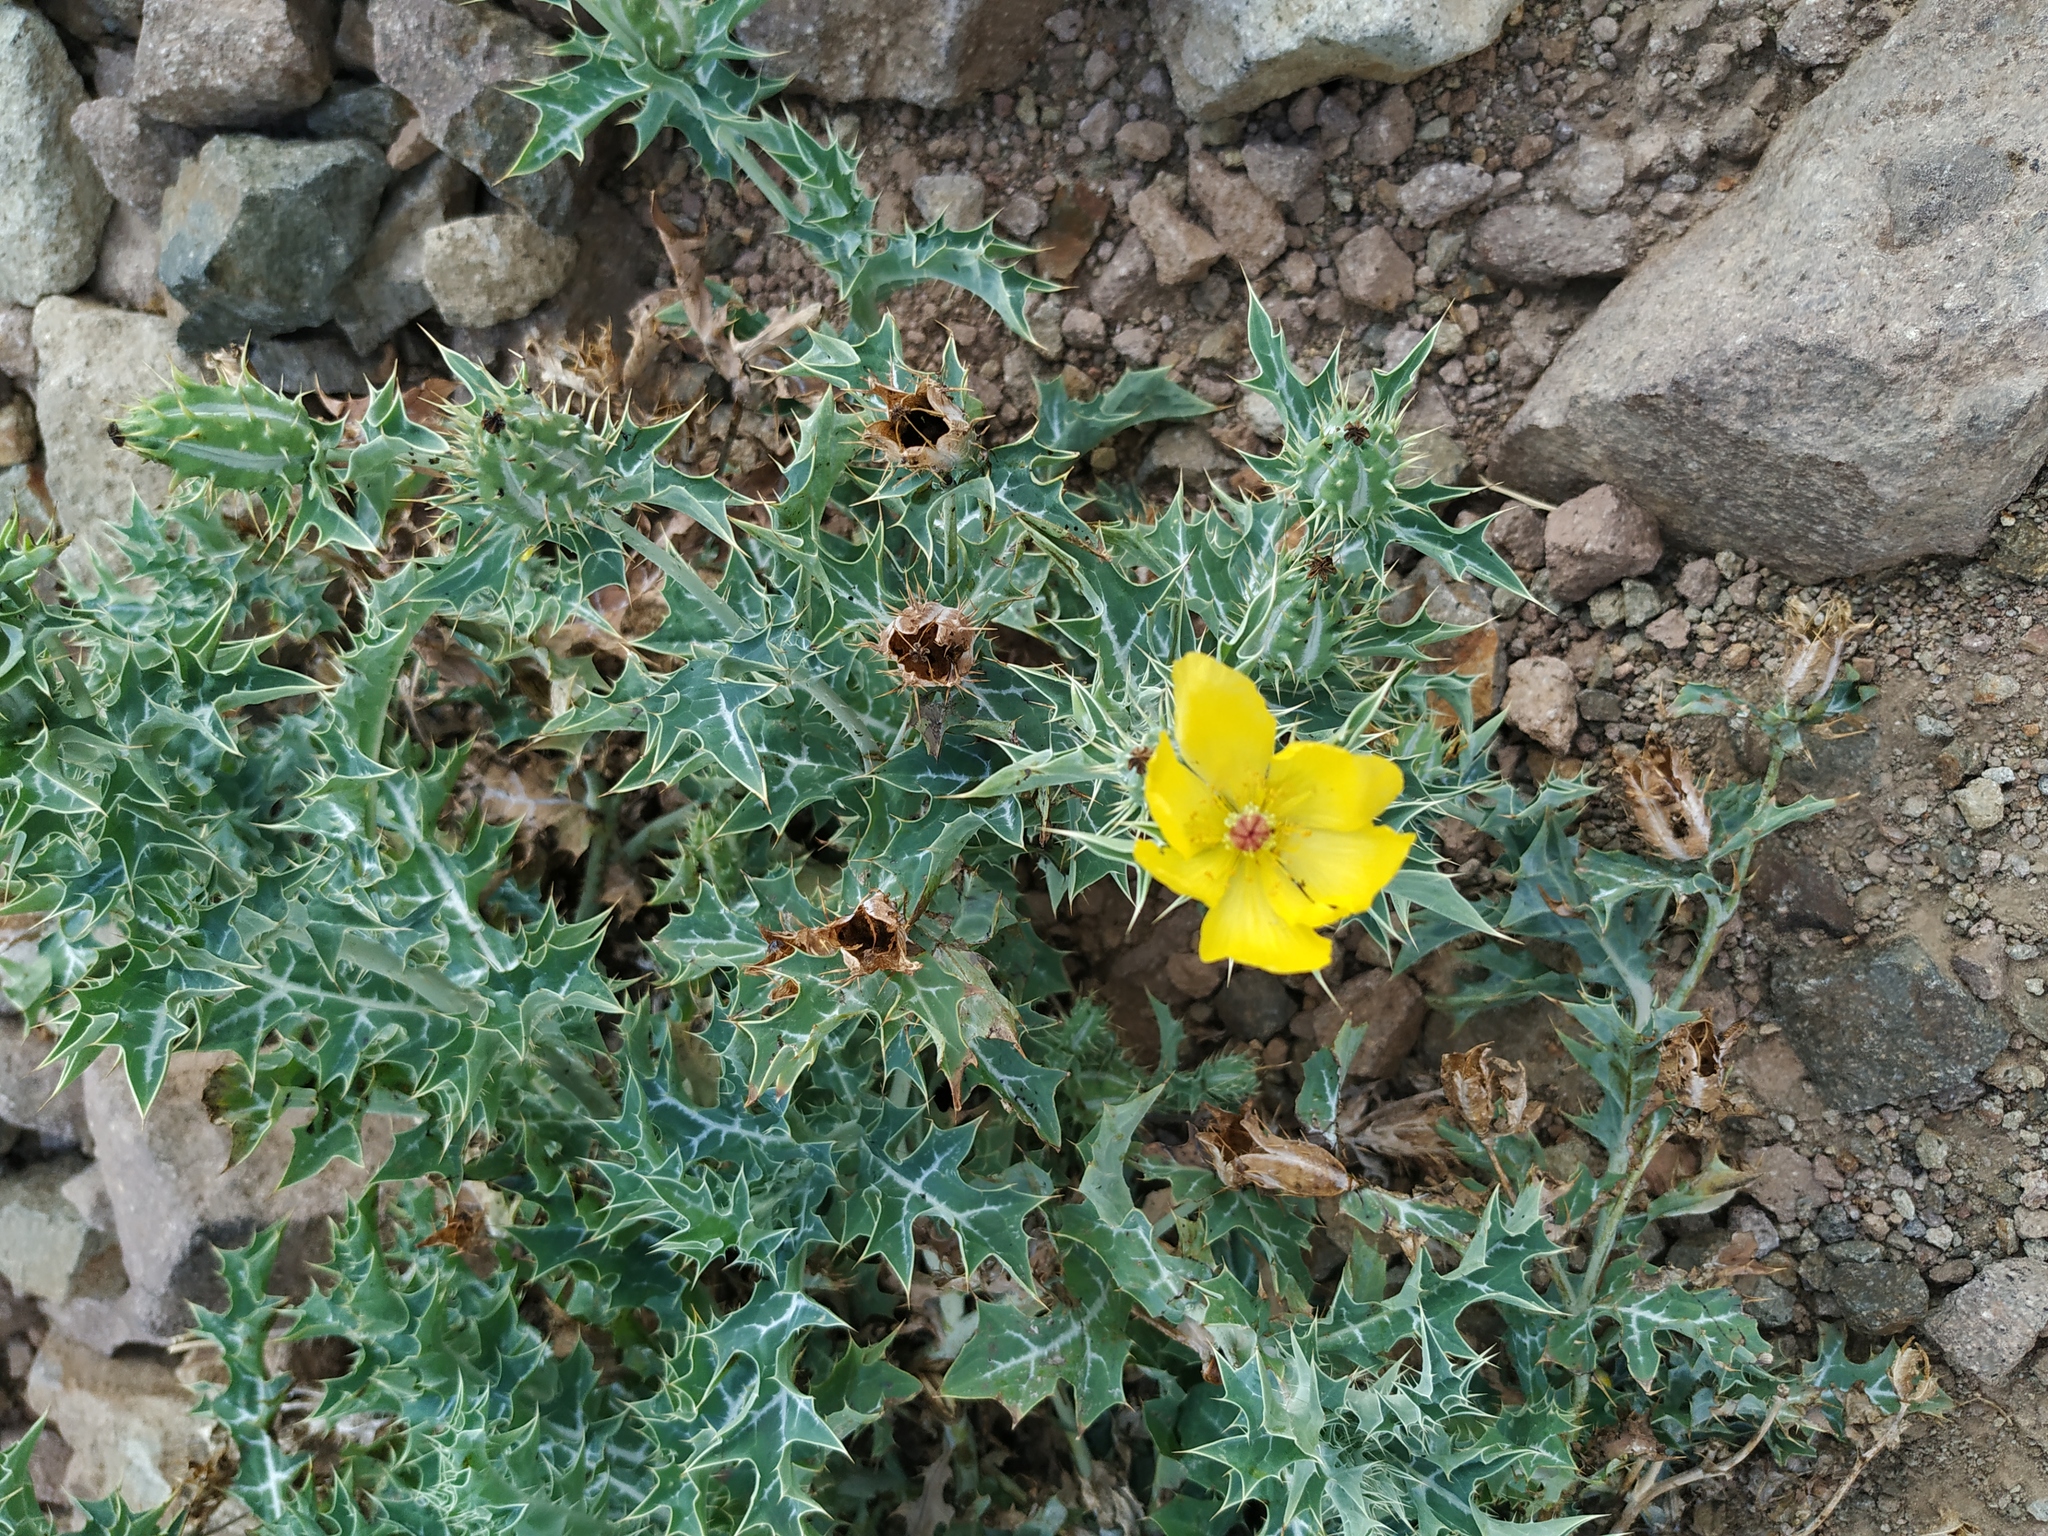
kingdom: Plantae
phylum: Tracheophyta
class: Magnoliopsida
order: Ranunculales
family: Papaveraceae
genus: Argemone
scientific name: Argemone mexicana
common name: Mexican poppy
